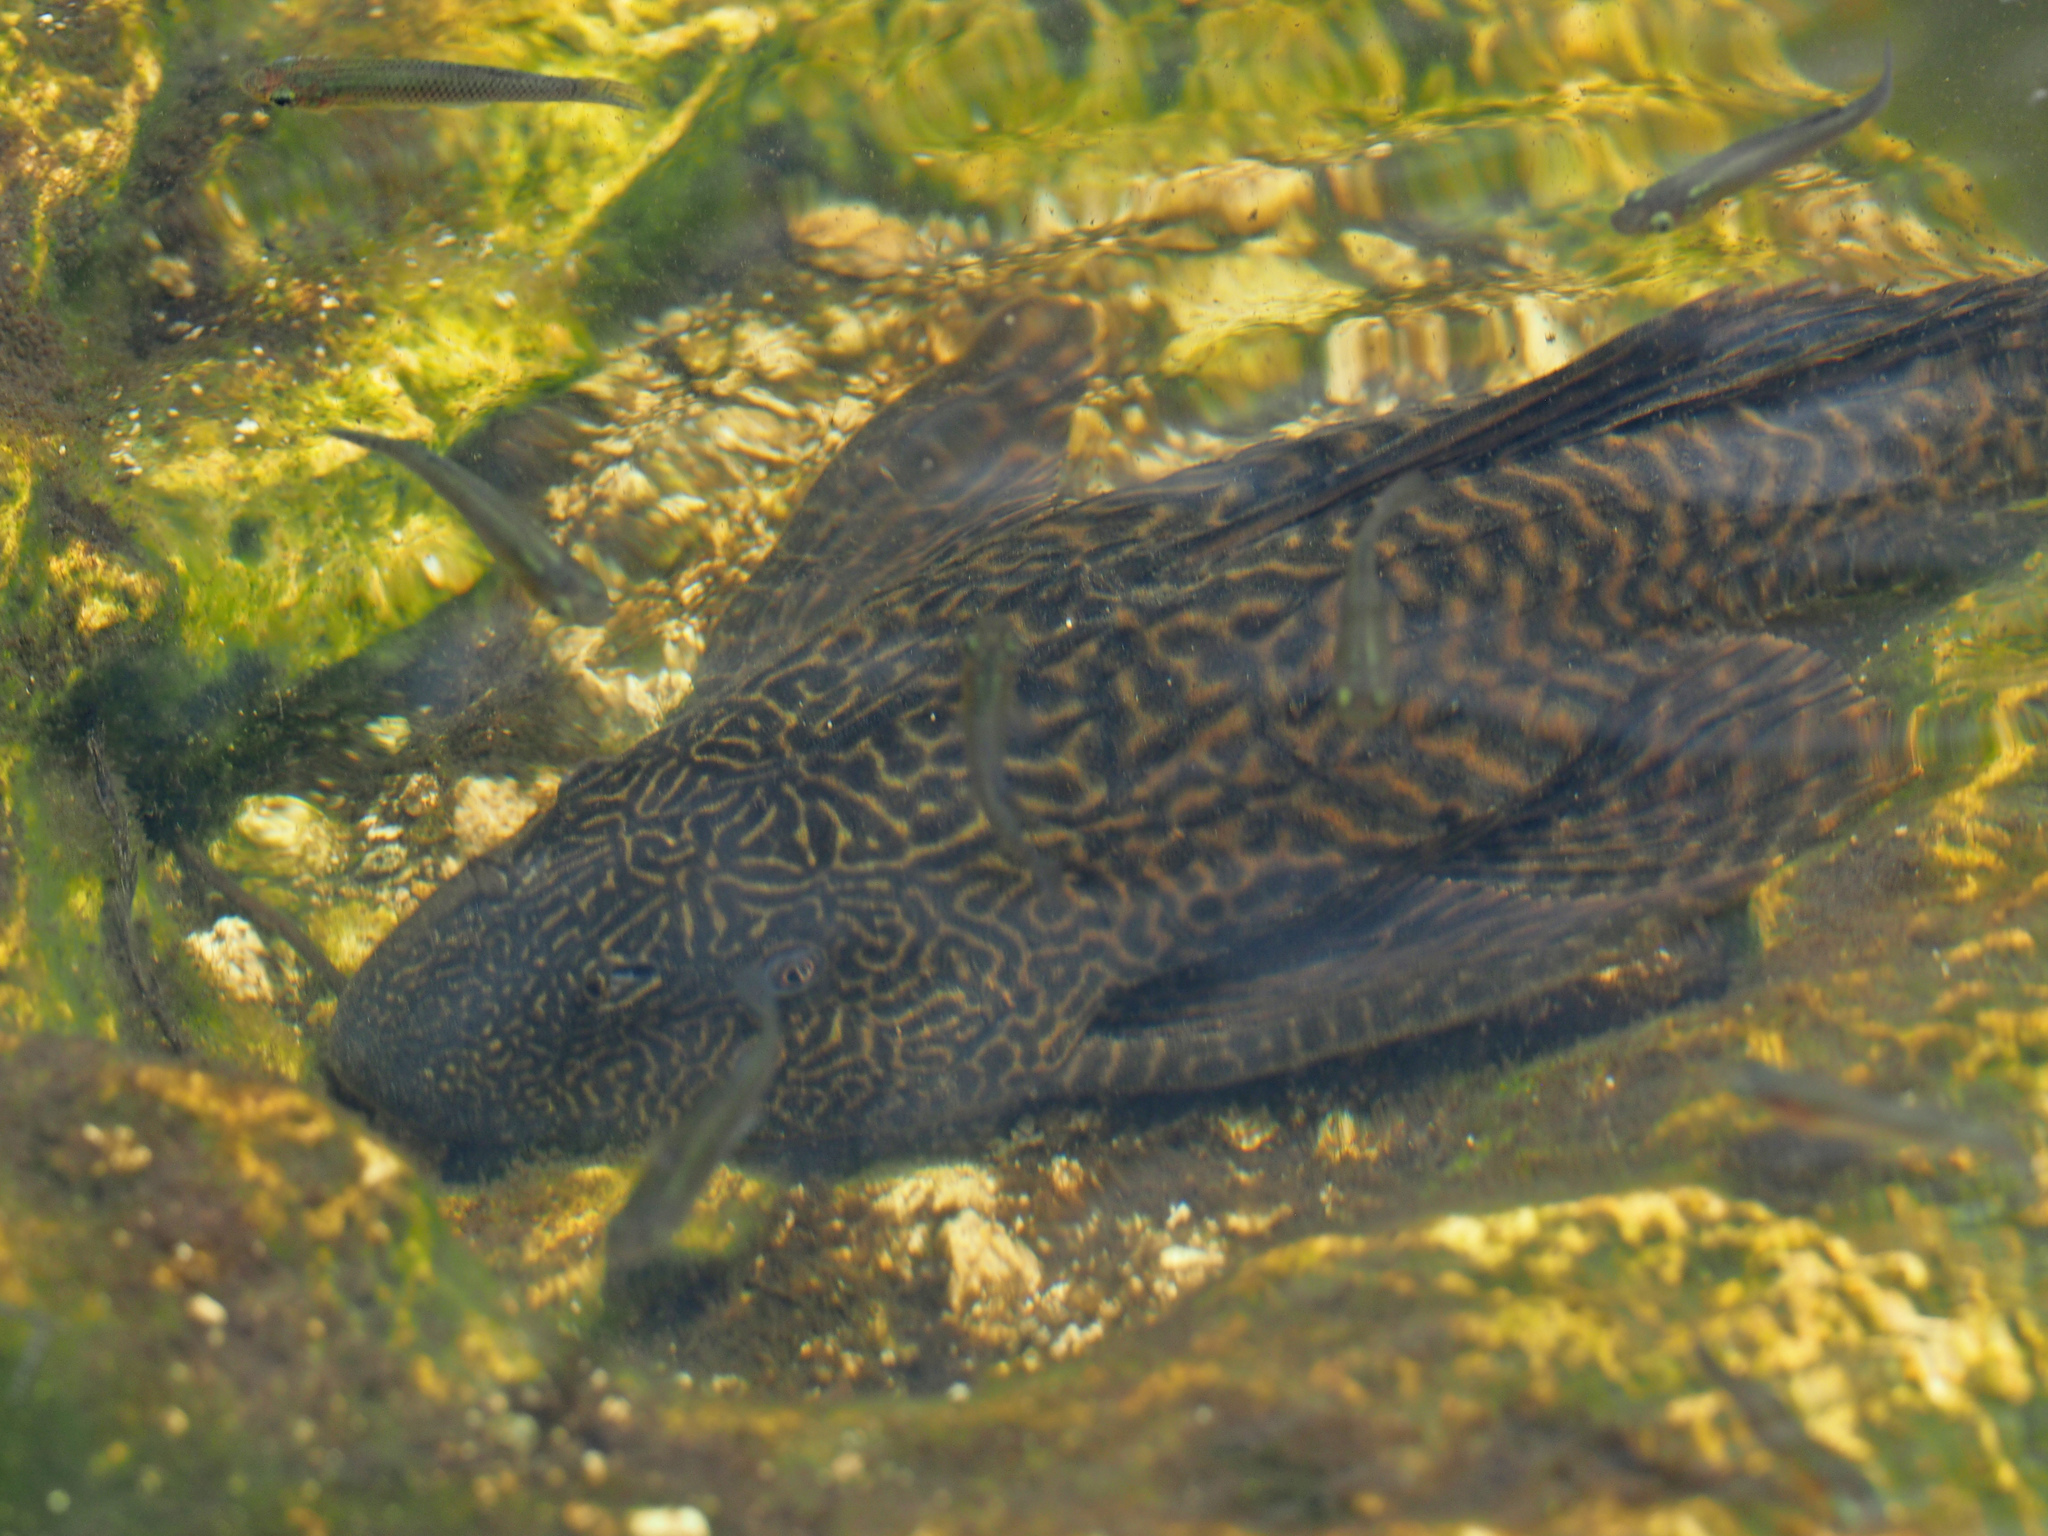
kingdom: Animalia
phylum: Chordata
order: Siluriformes
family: Loricariidae
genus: Pterygoplichthys
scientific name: Pterygoplichthys
